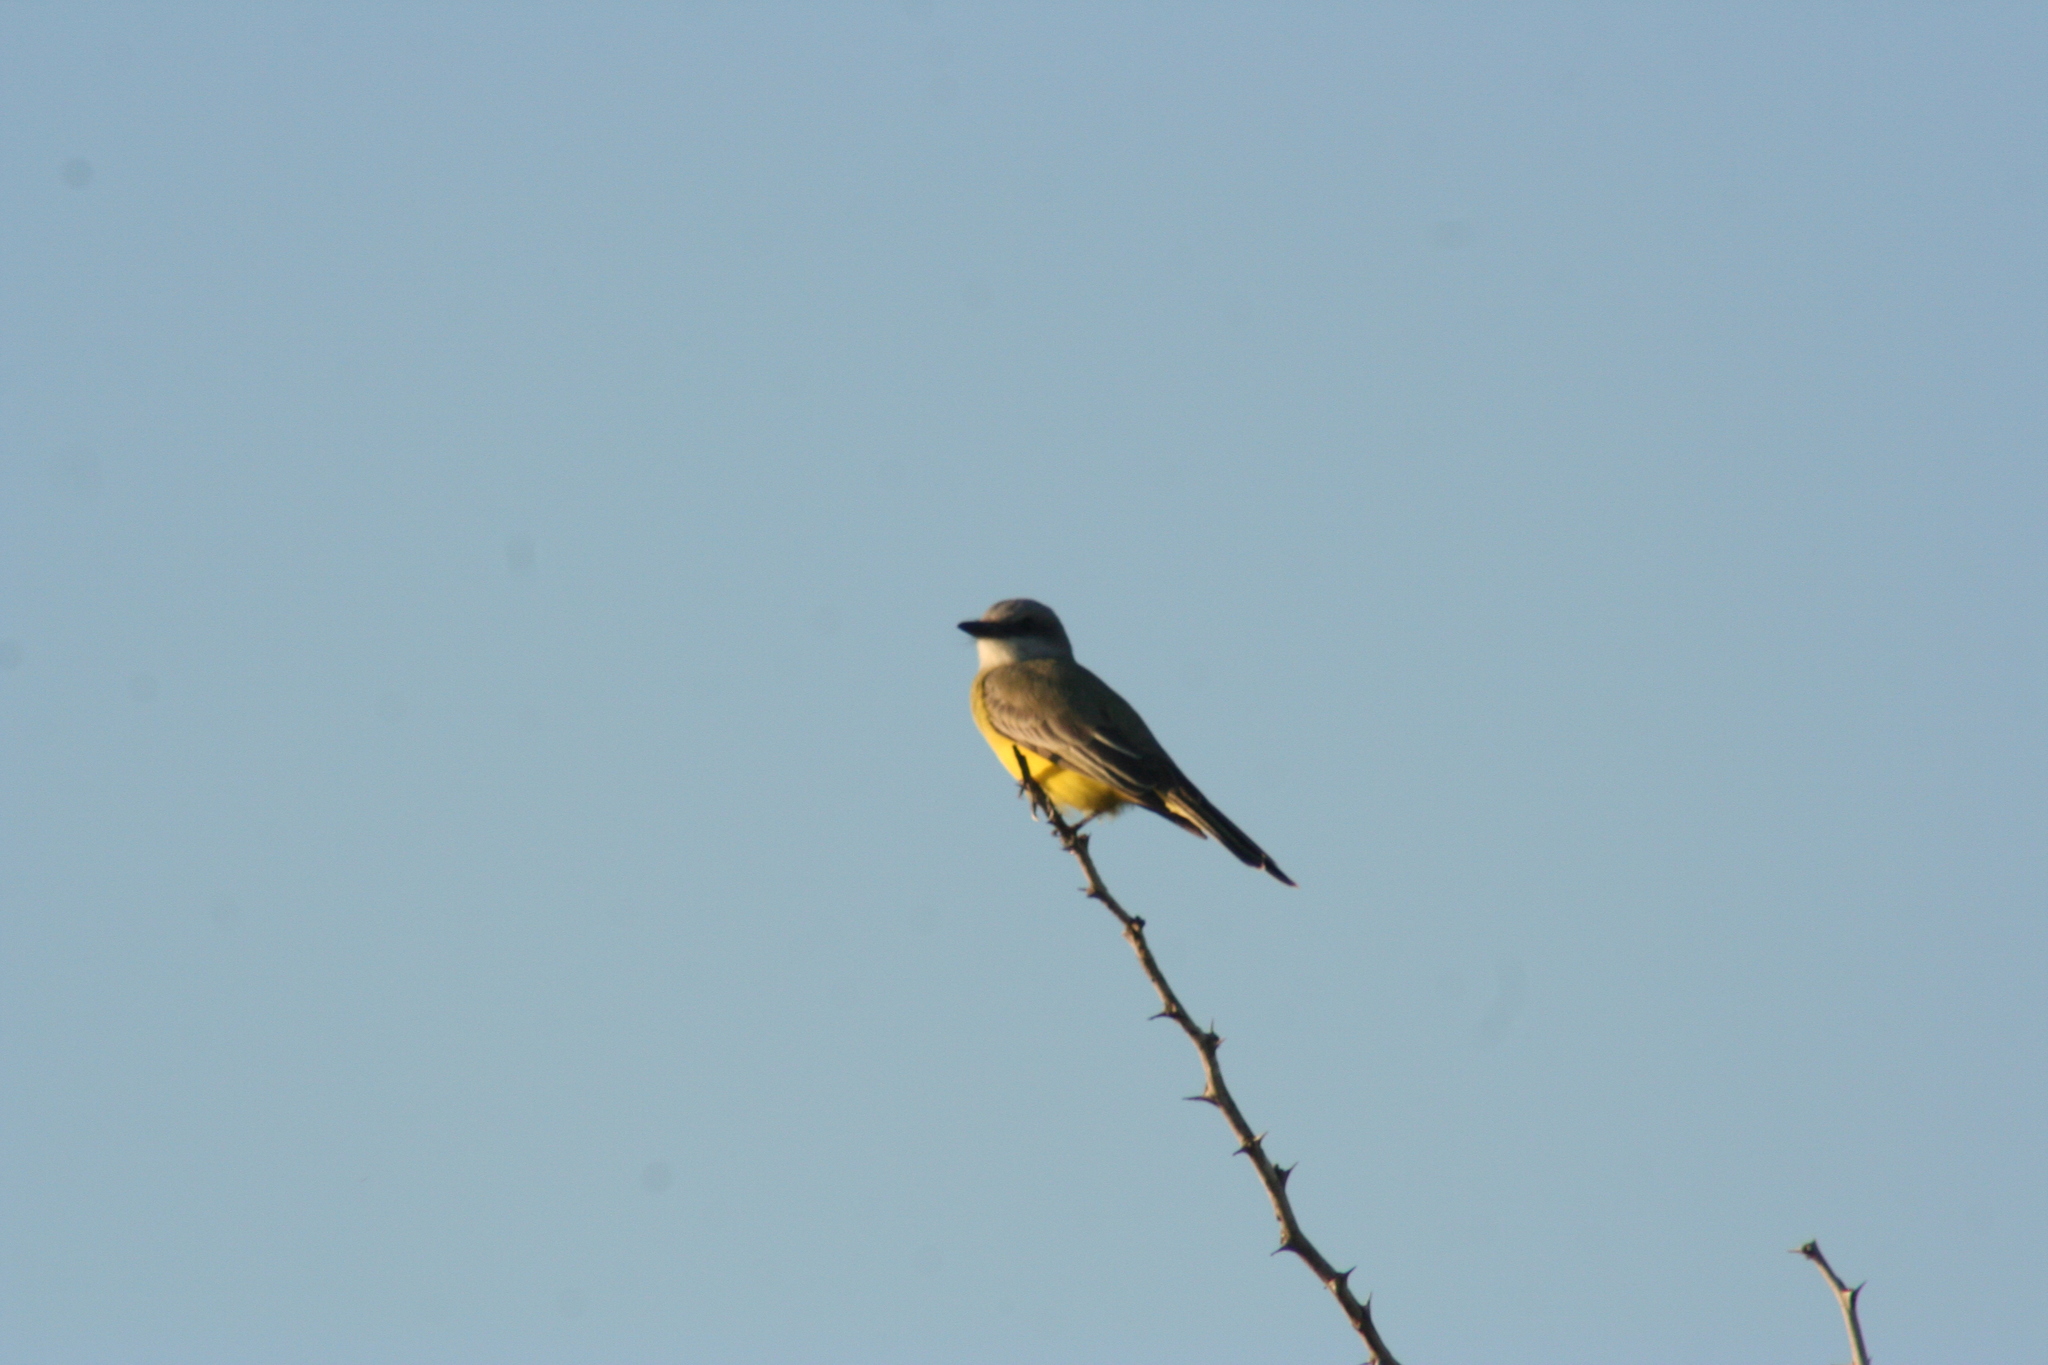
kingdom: Animalia
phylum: Chordata
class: Aves
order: Passeriformes
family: Tyrannidae
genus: Tyrannus
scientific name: Tyrannus melancholicus
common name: Tropical kingbird
